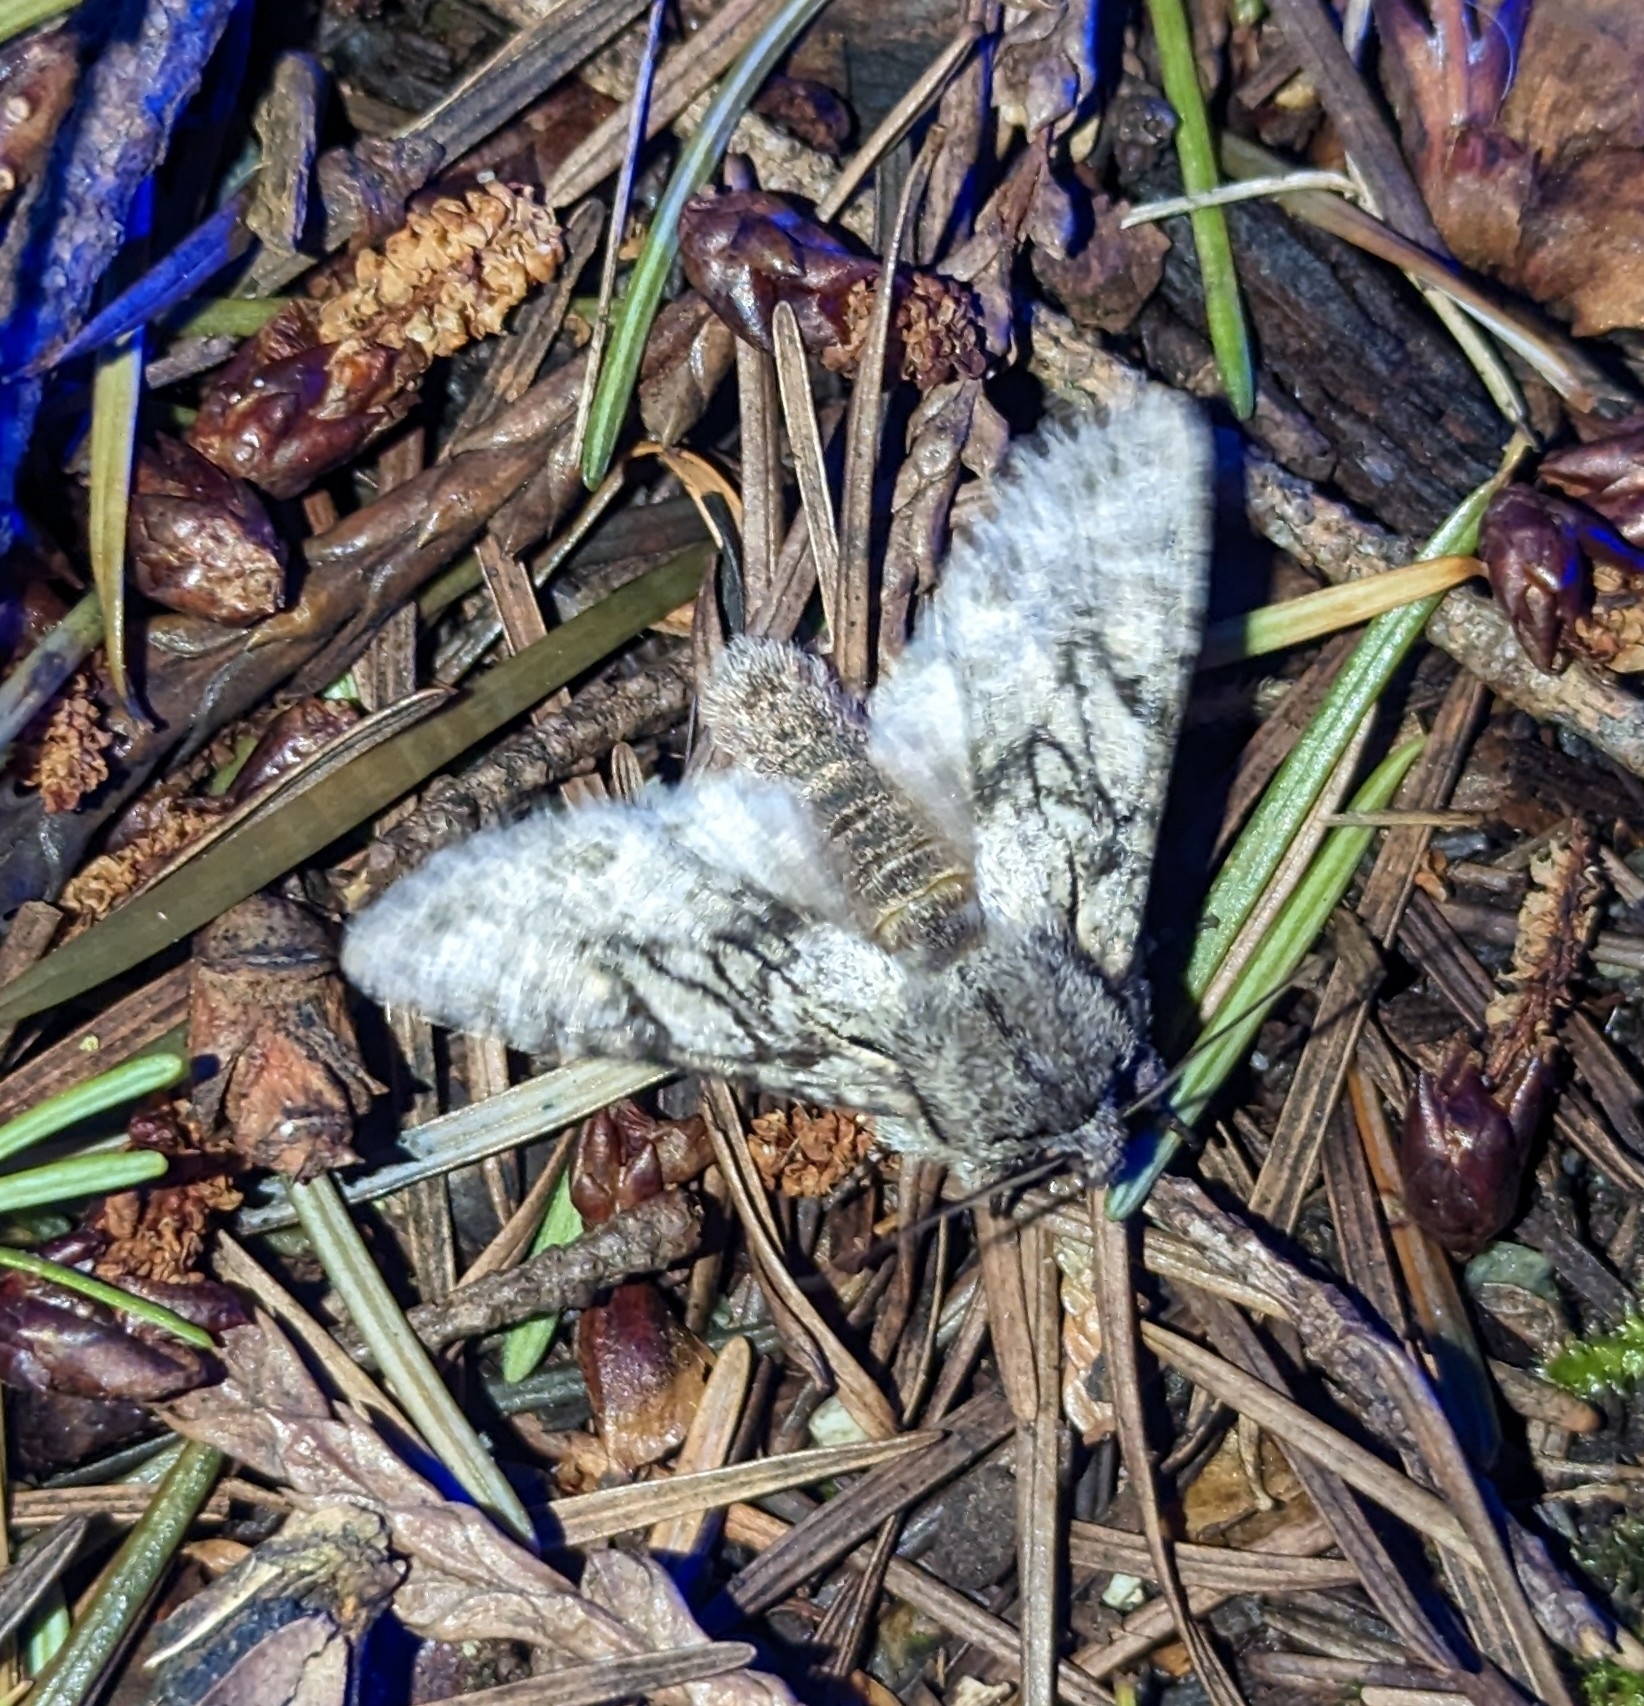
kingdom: Animalia
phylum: Arthropoda
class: Insecta
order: Lepidoptera
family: Noctuidae
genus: Egira
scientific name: Egira simplex
